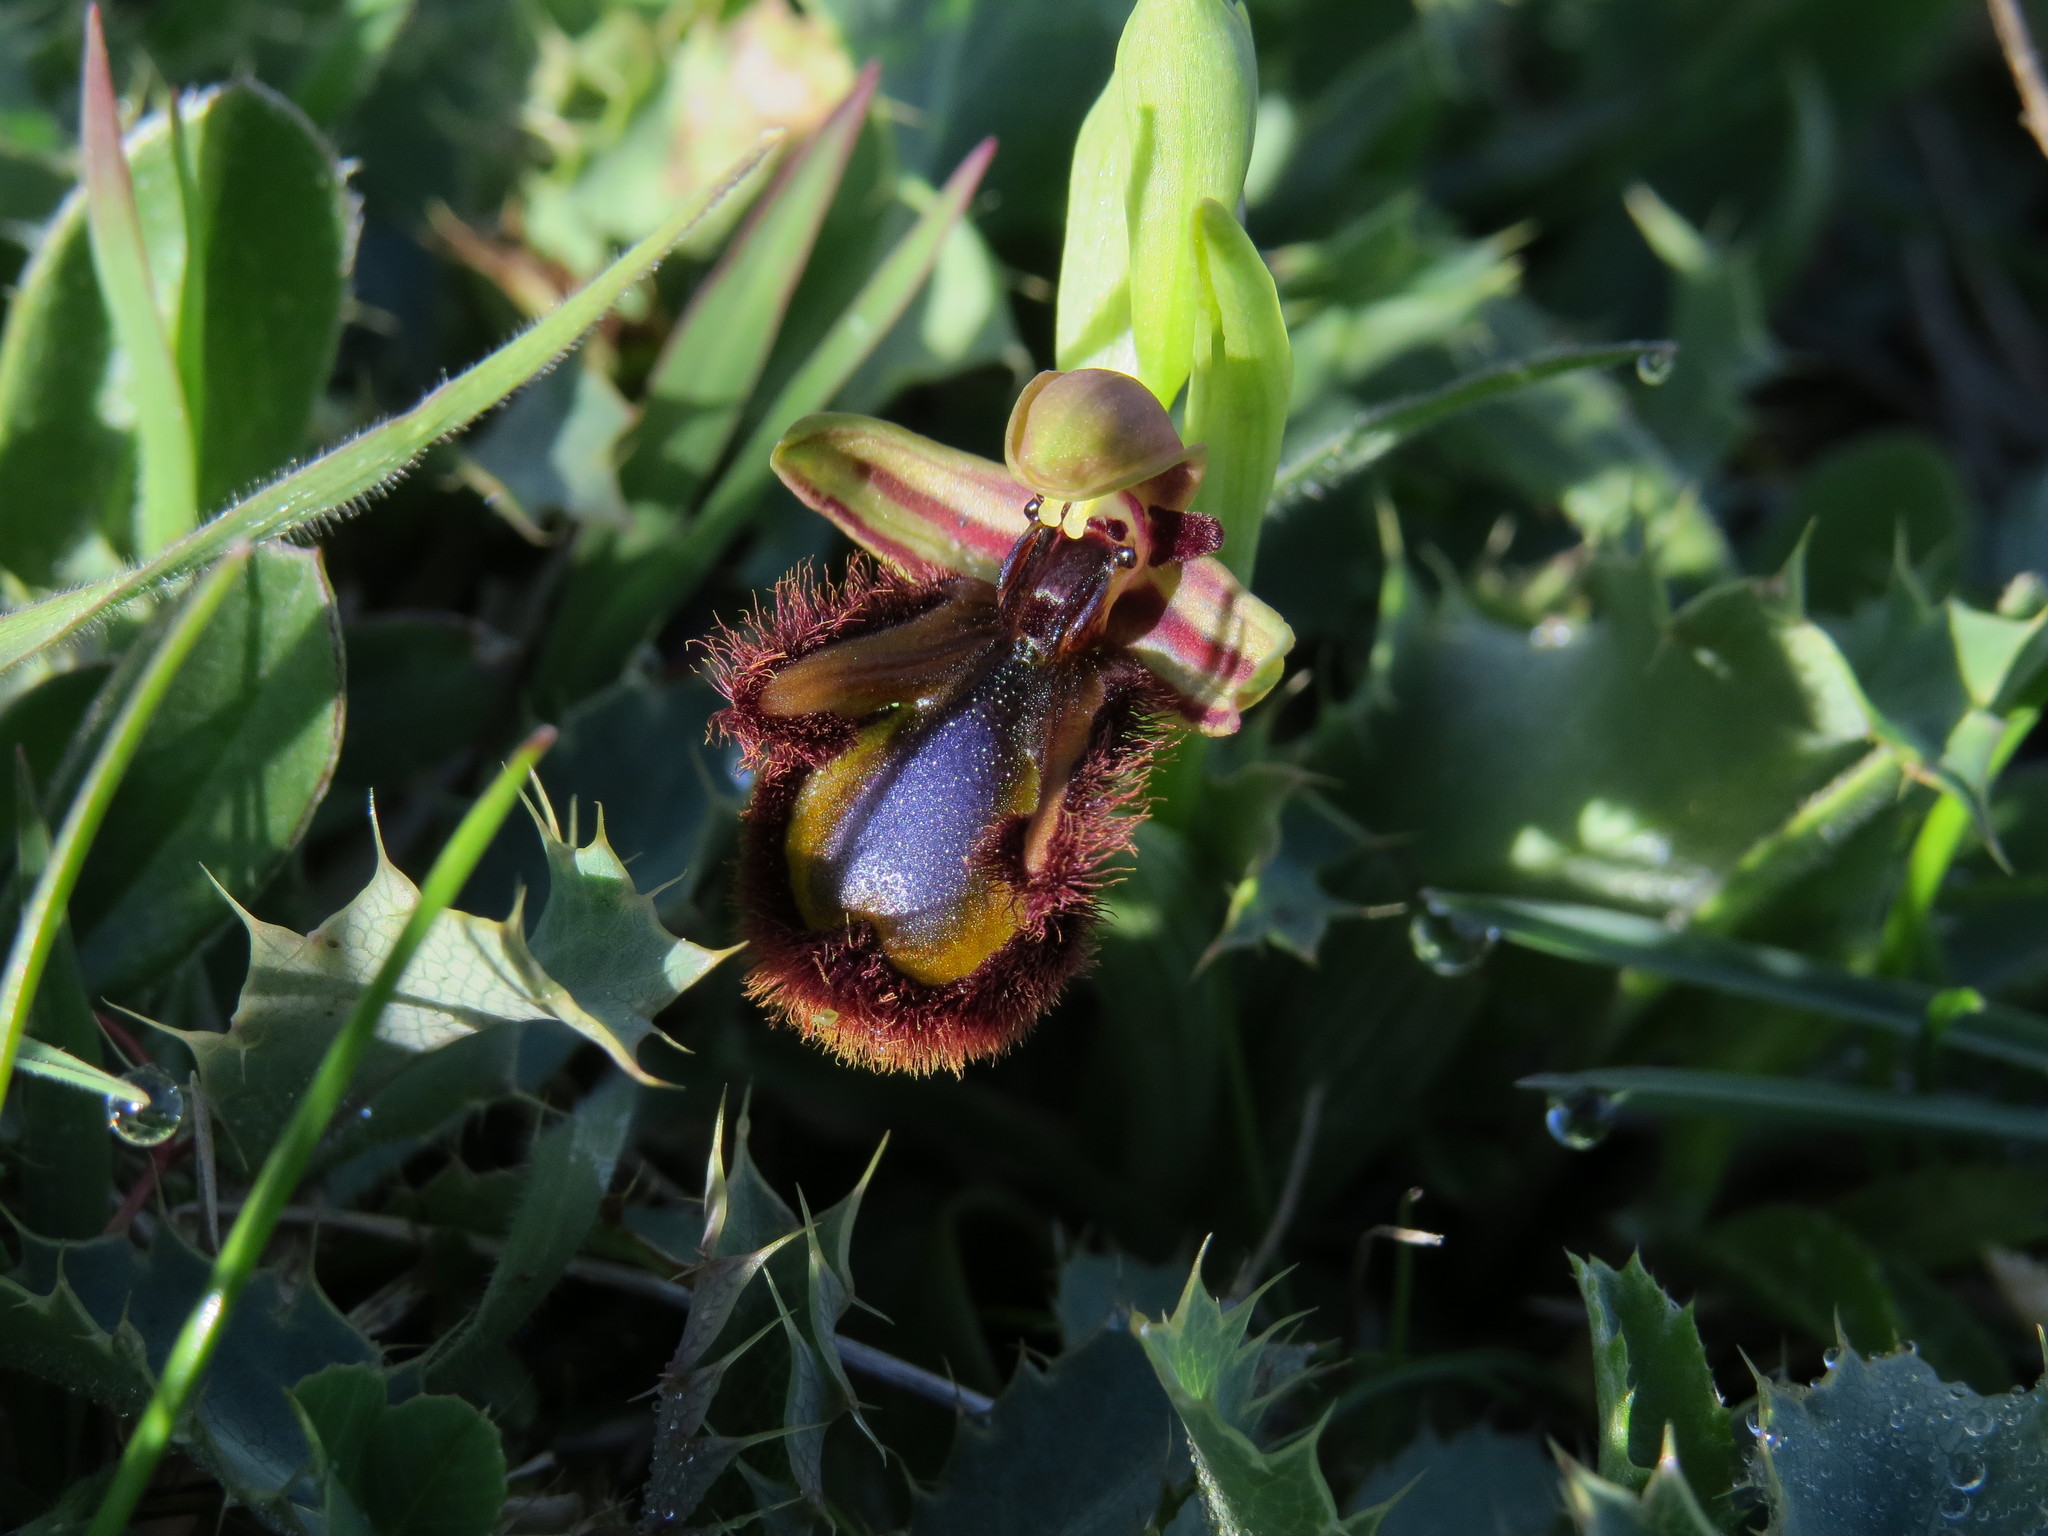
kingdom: Plantae
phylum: Tracheophyta
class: Liliopsida
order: Asparagales
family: Orchidaceae
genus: Ophrys
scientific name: Ophrys speculum
